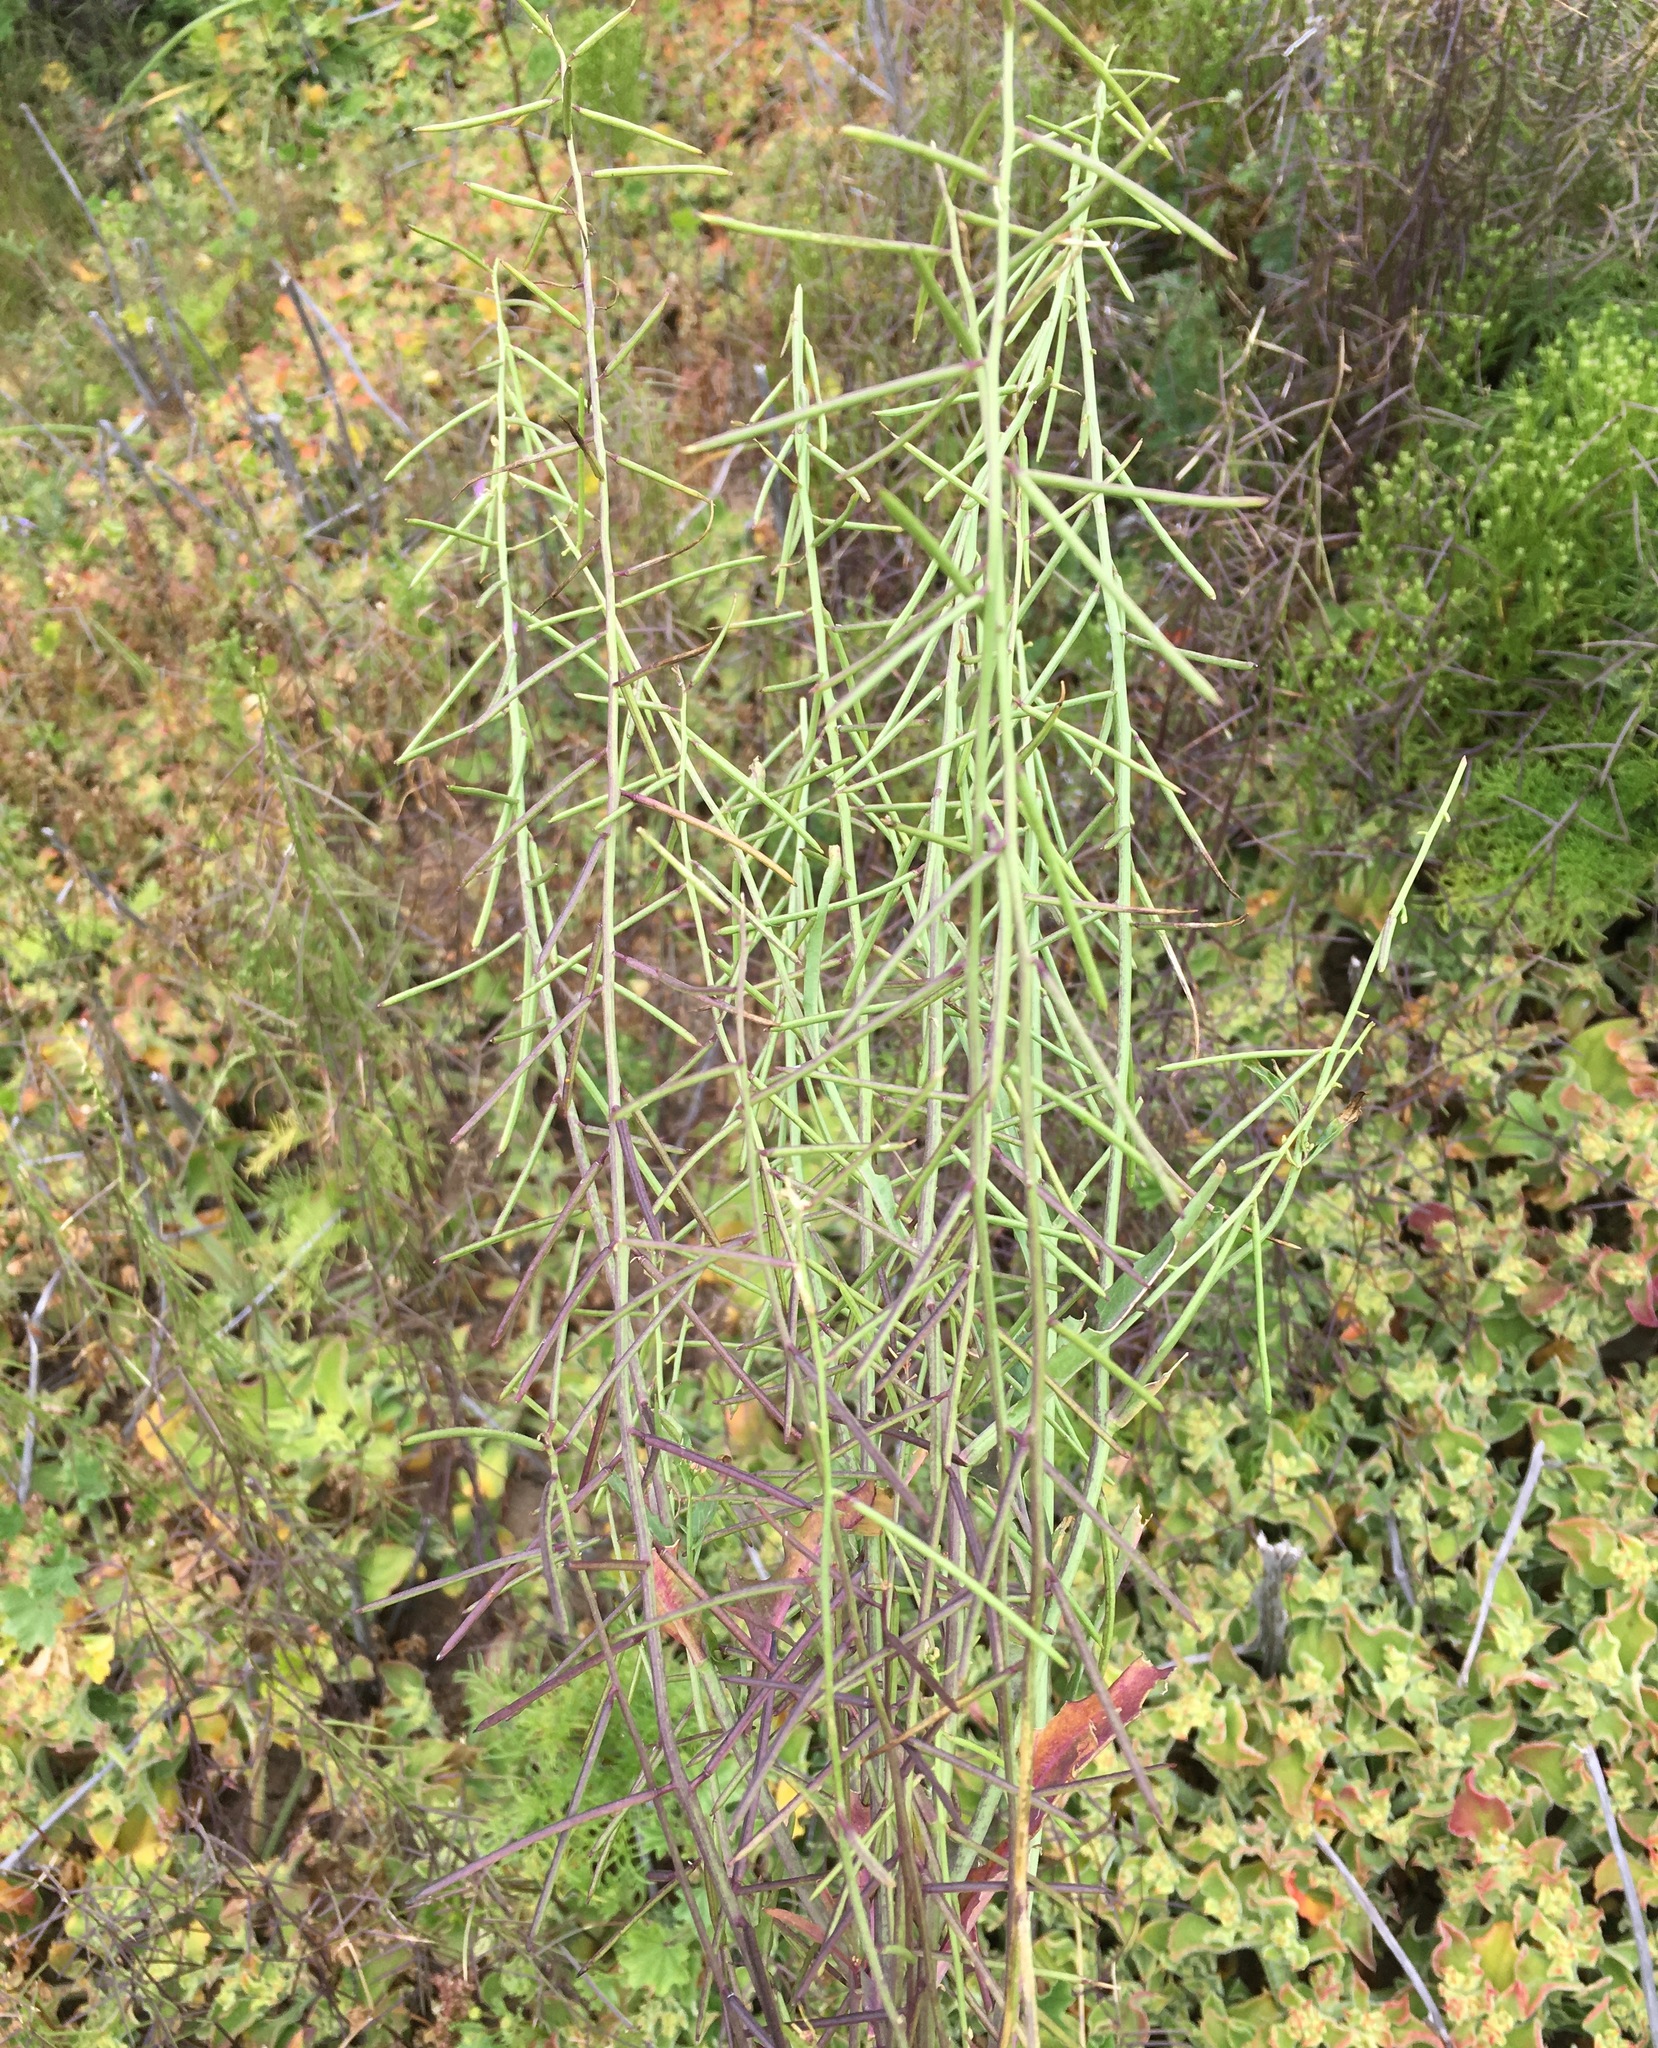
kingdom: Plantae
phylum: Tracheophyta
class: Magnoliopsida
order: Brassicales
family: Brassicaceae
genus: Streptanthus
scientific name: Streptanthus lasiophyllus
